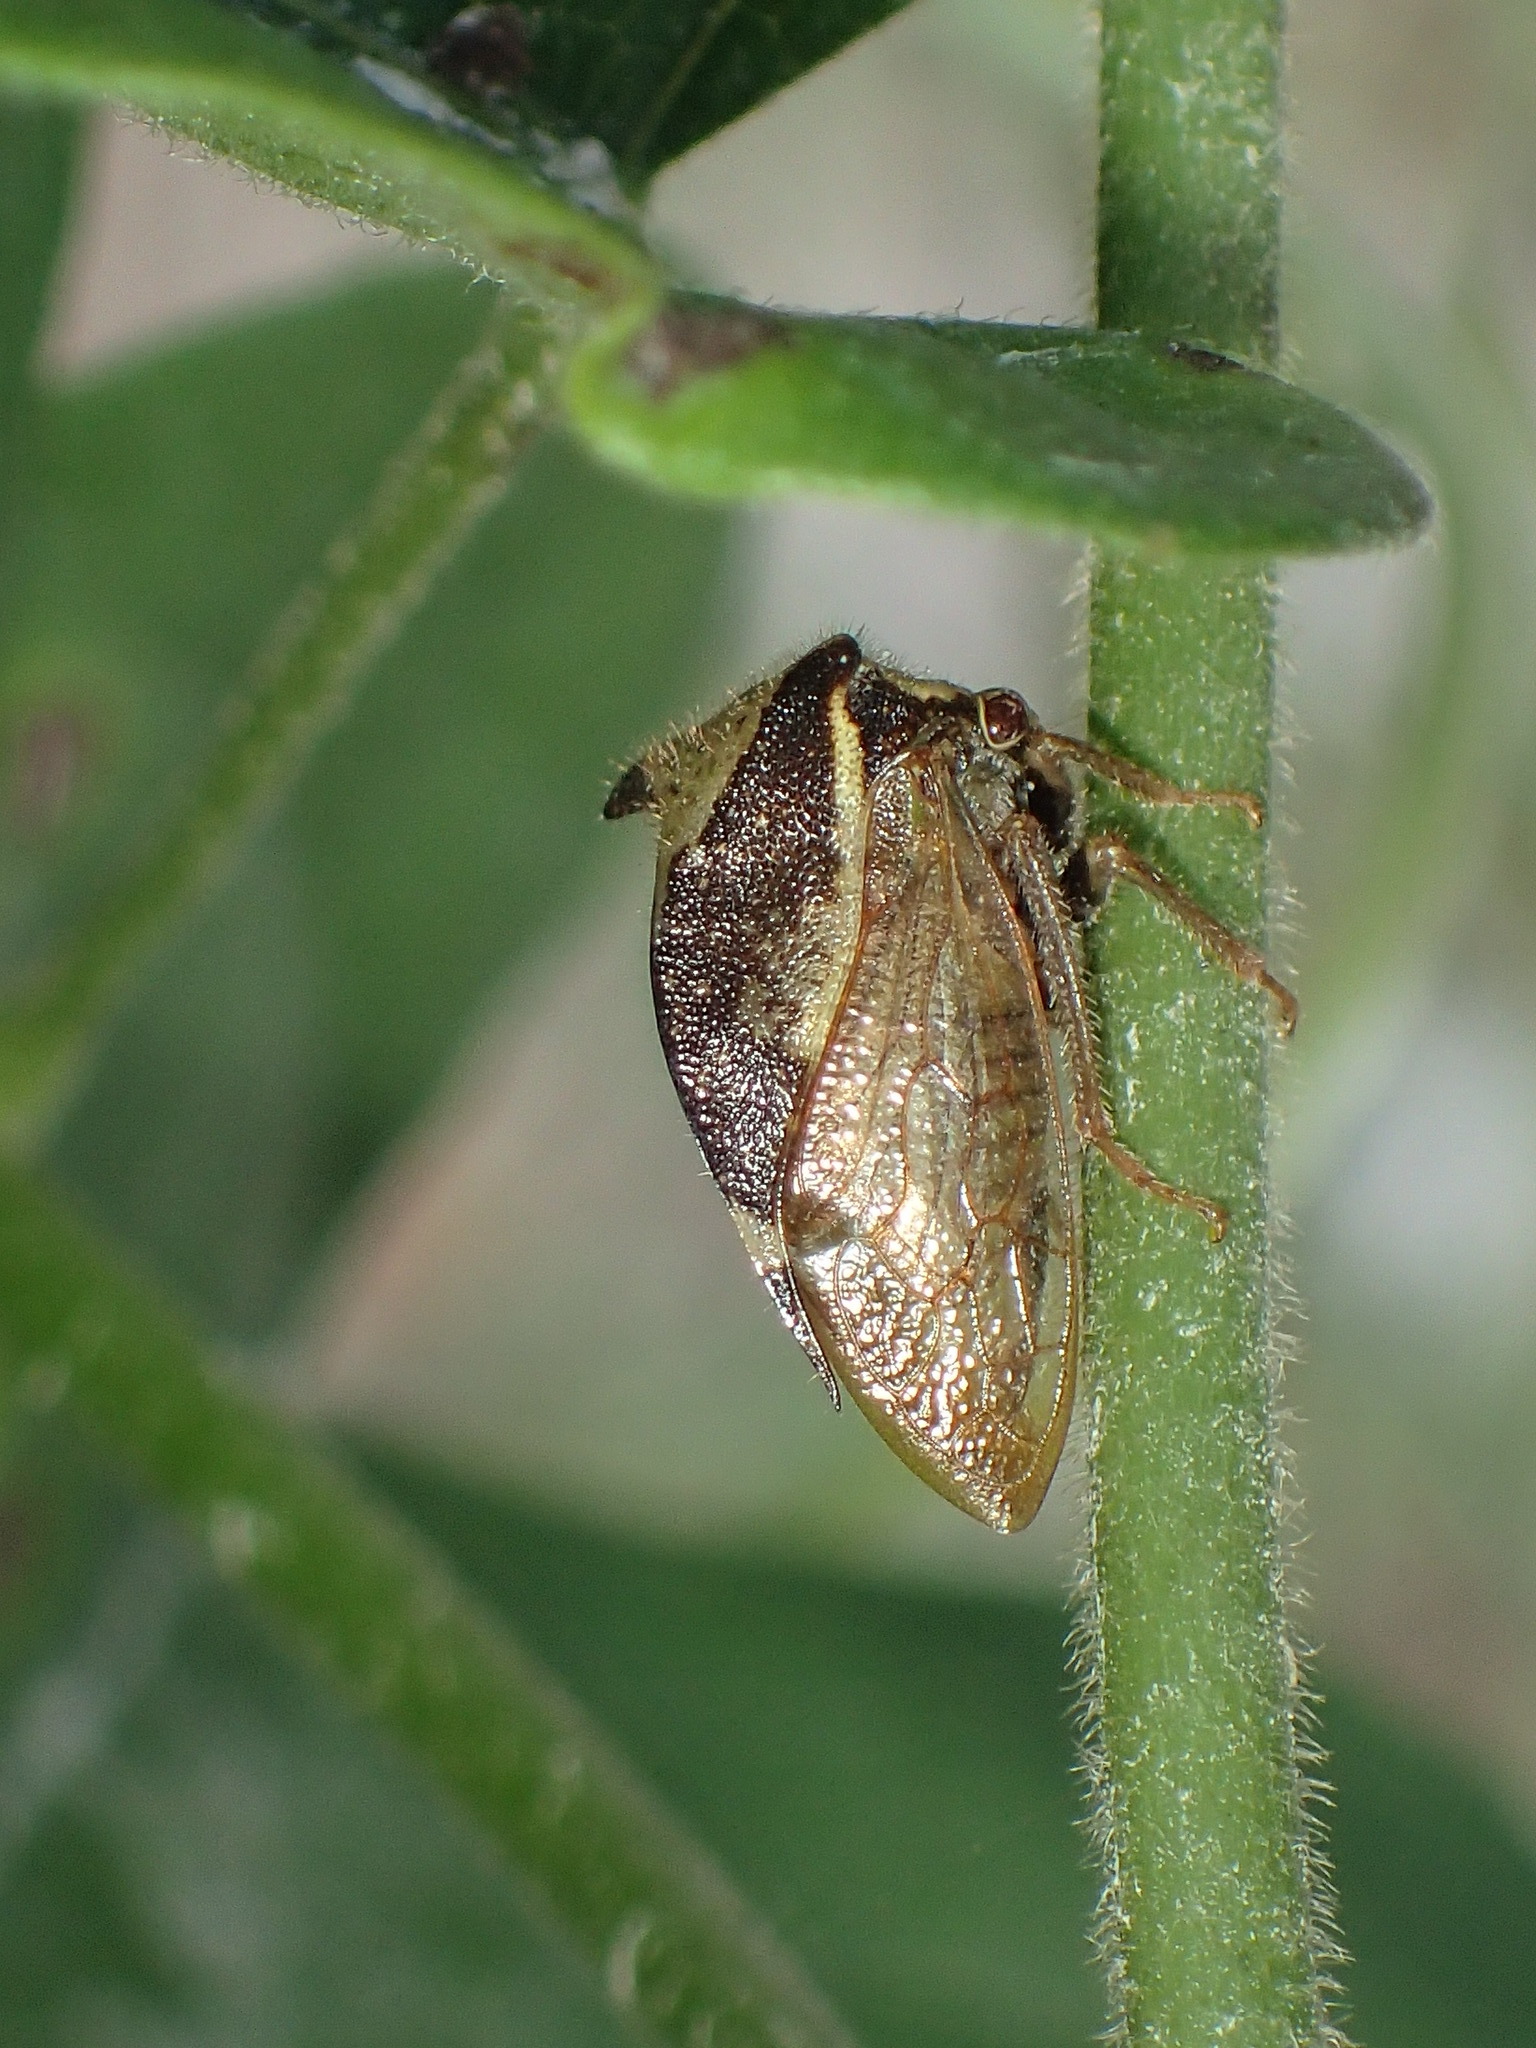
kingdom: Animalia
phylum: Arthropoda
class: Insecta
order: Hemiptera
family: Membracidae
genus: Stictocephala
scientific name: Stictocephala diceros
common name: Two-horned treehopper
